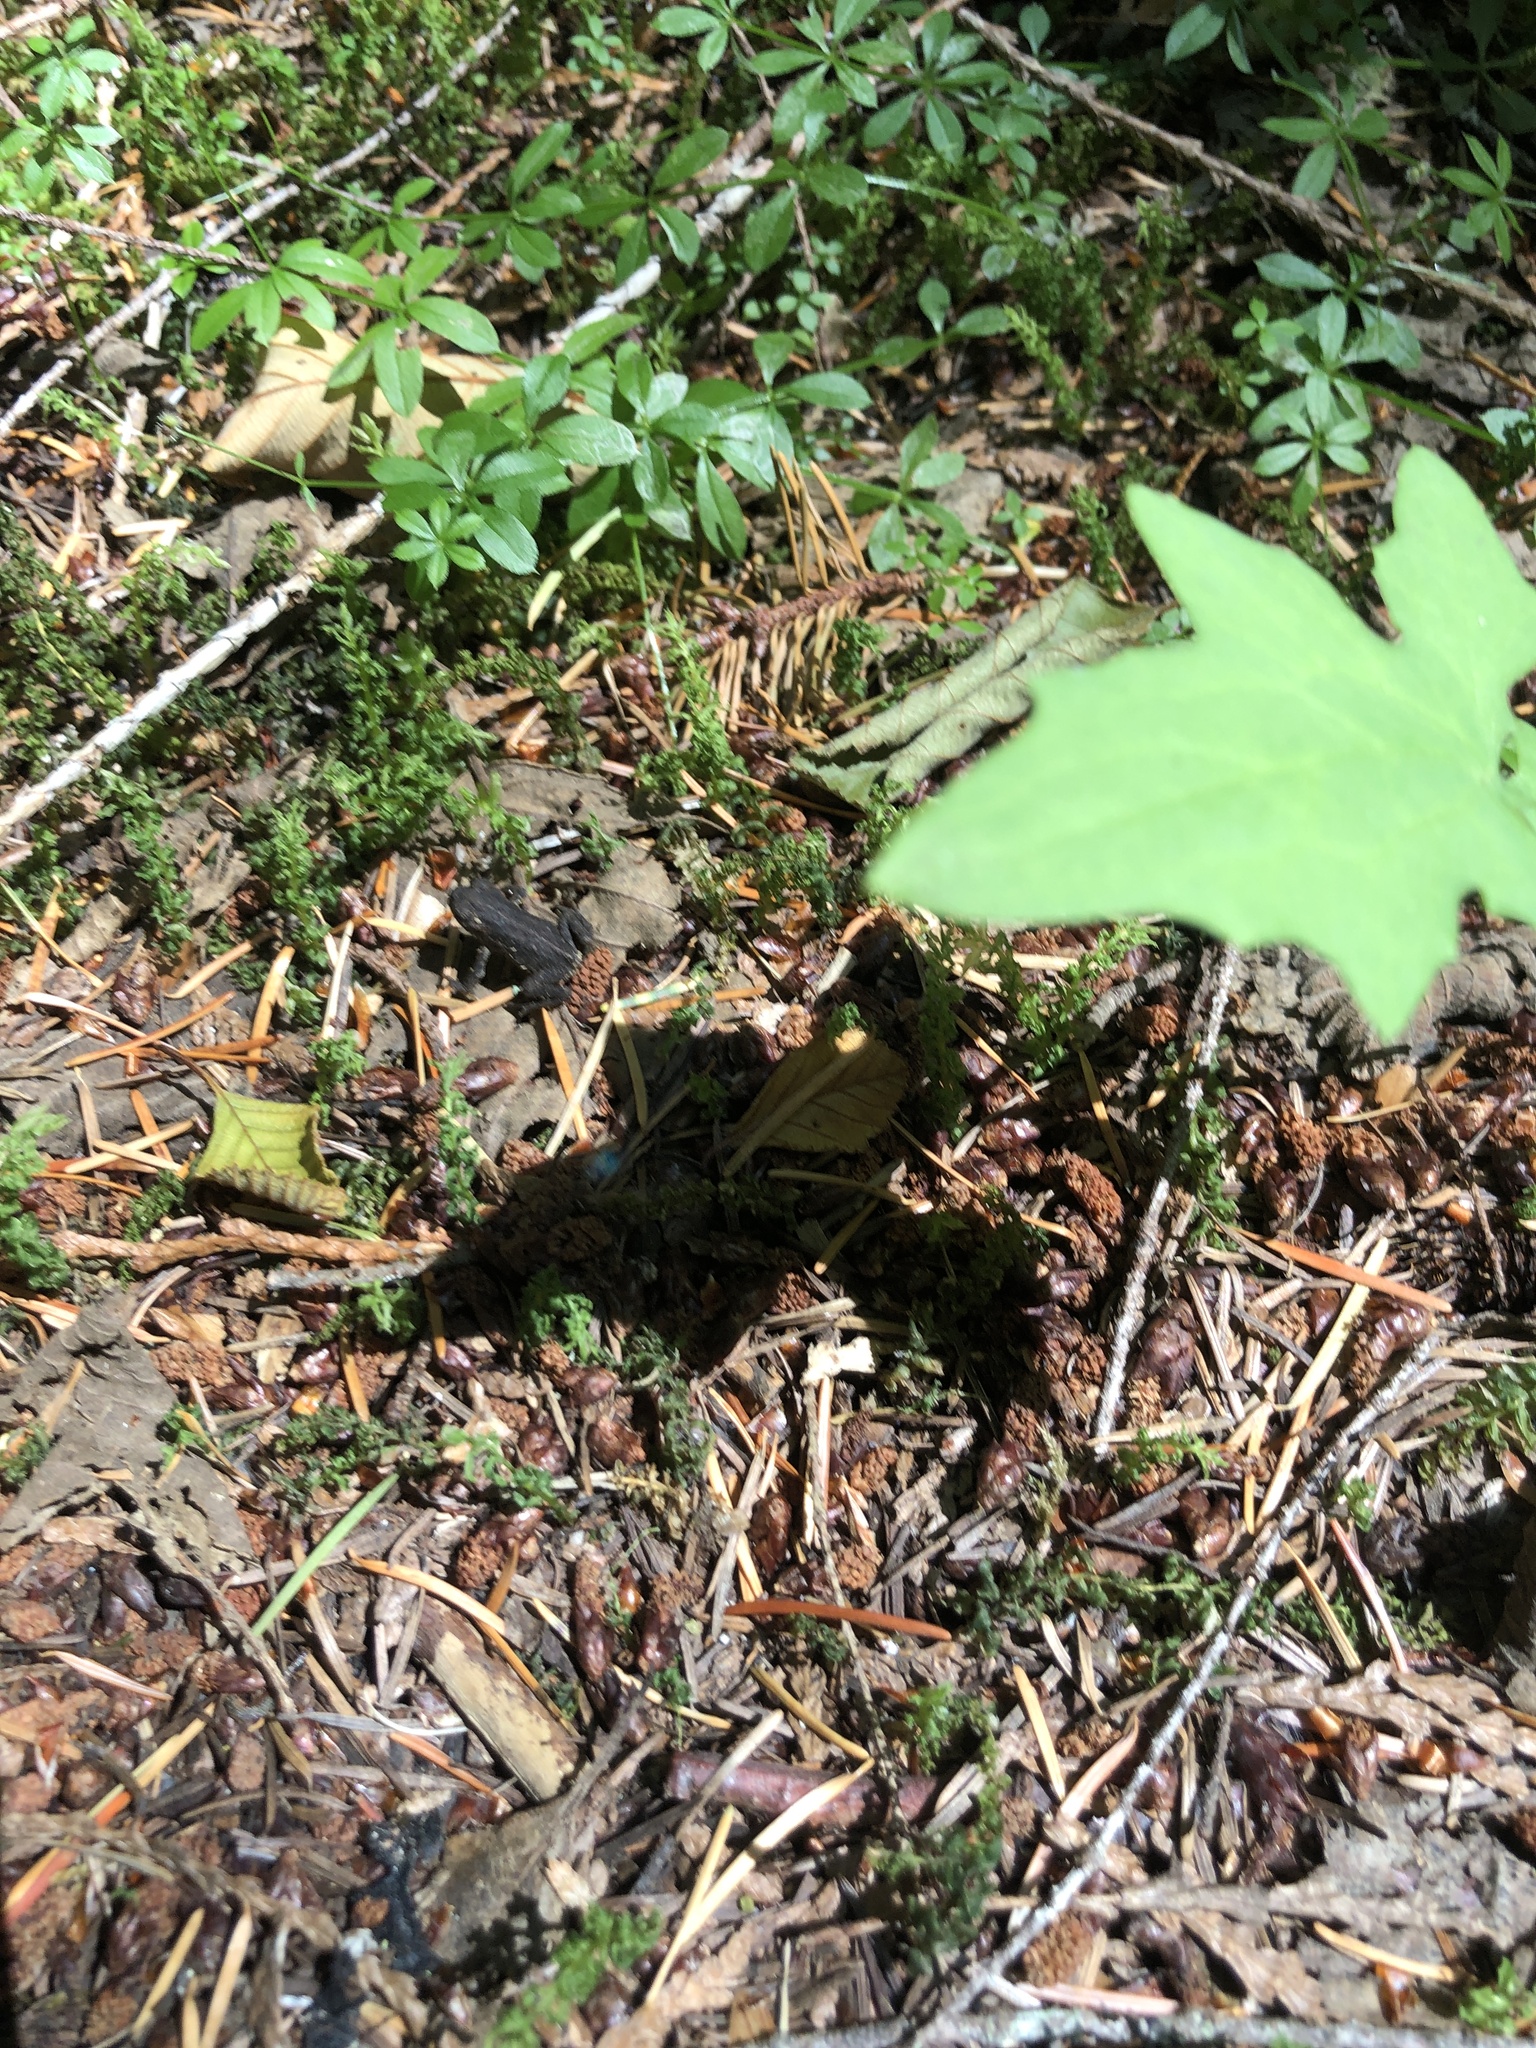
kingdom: Animalia
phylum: Chordata
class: Amphibia
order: Anura
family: Bufonidae
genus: Anaxyrus
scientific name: Anaxyrus boreas
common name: Western toad
